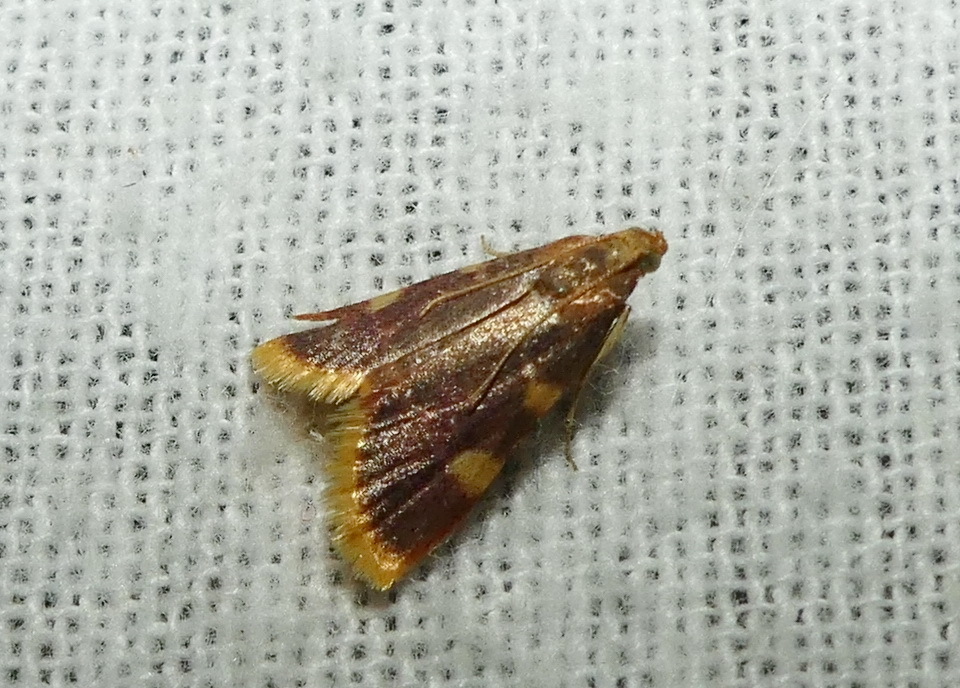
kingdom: Animalia
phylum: Arthropoda
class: Insecta
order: Lepidoptera
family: Pyralidae
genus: Hypsopygia
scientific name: Hypsopygia costalis
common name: Gold triangle
